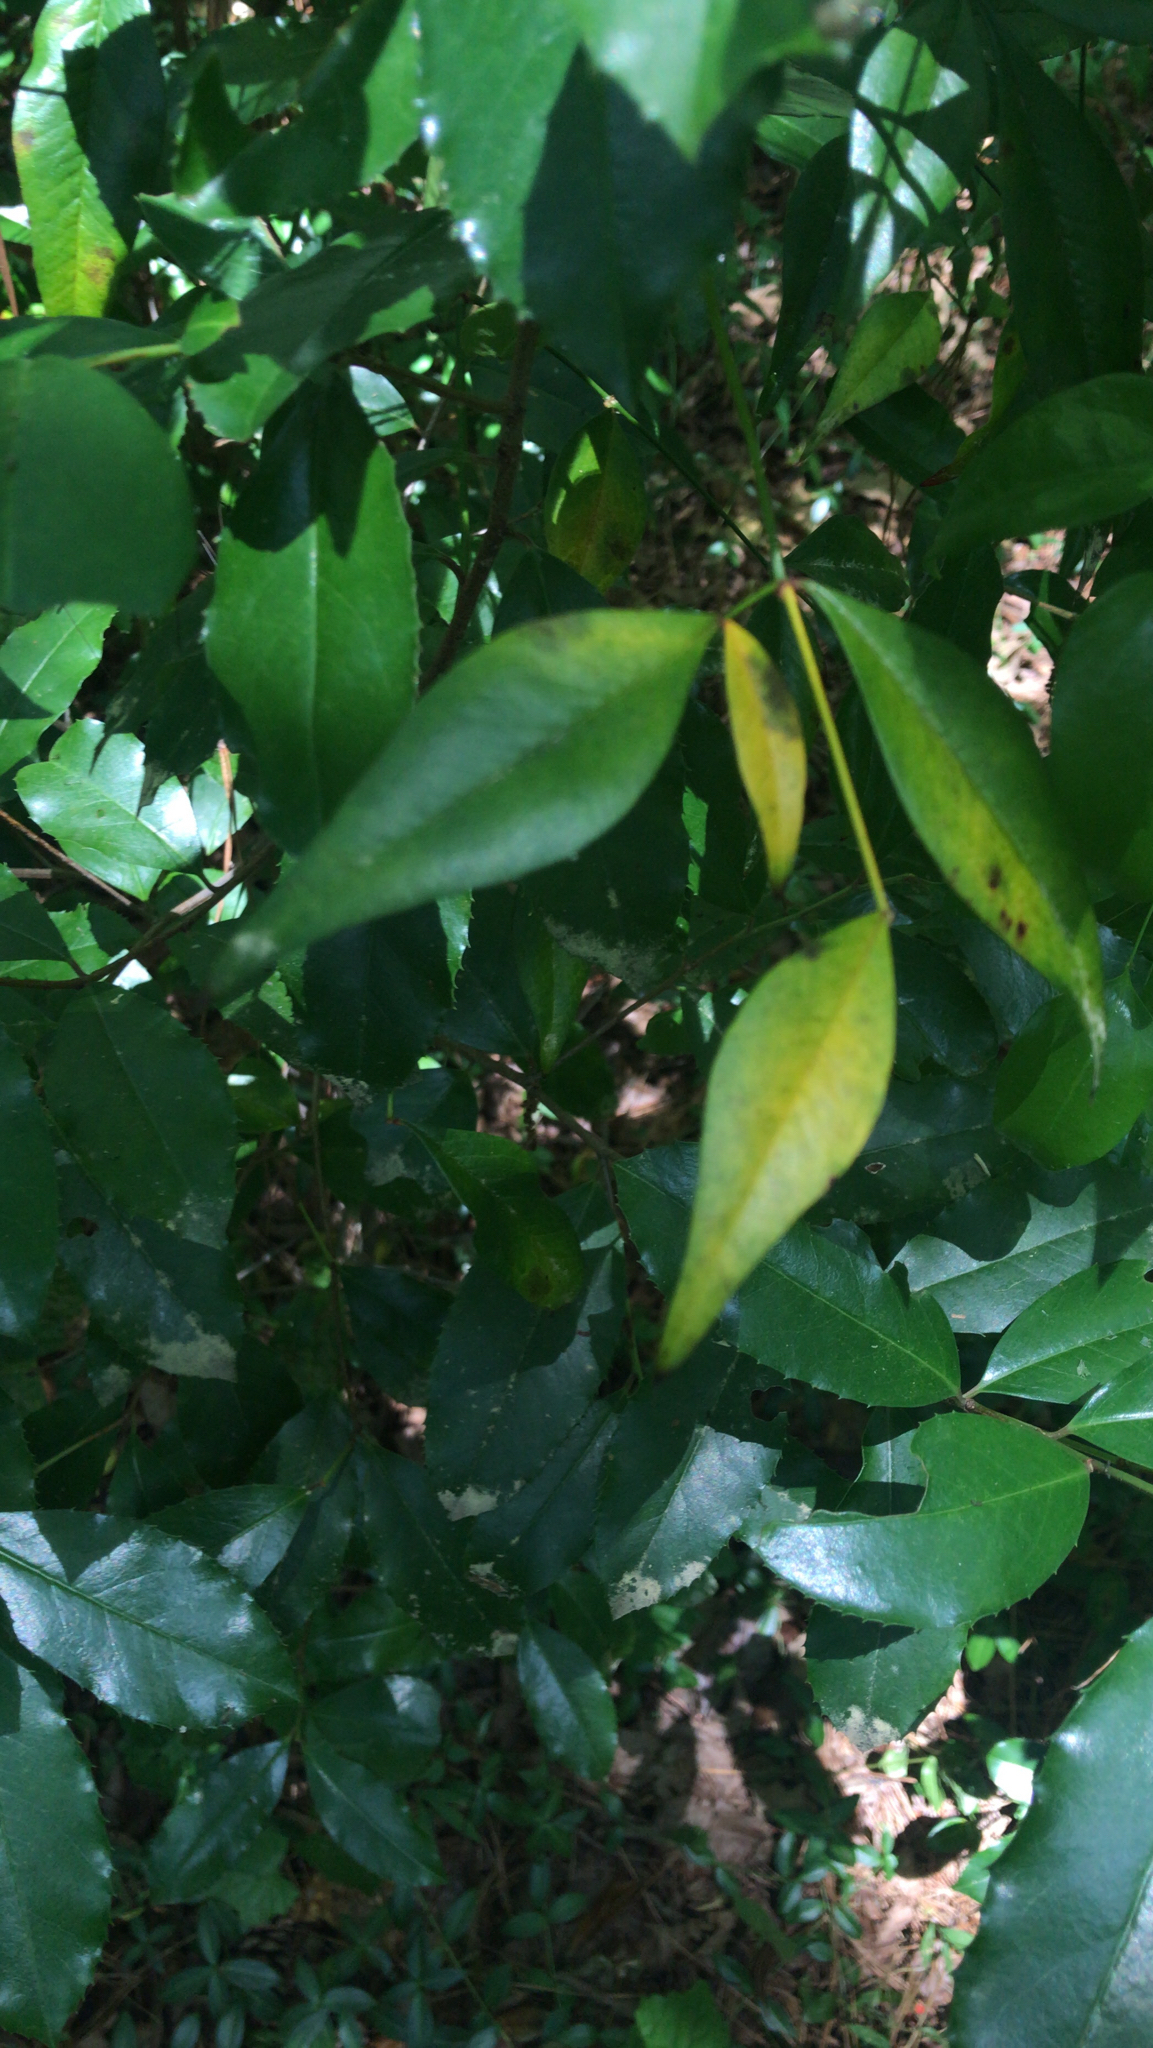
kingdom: Plantae
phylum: Tracheophyta
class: Magnoliopsida
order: Ranunculales
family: Berberidaceae
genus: Nandina
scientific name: Nandina domestica
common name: Sacred bamboo
